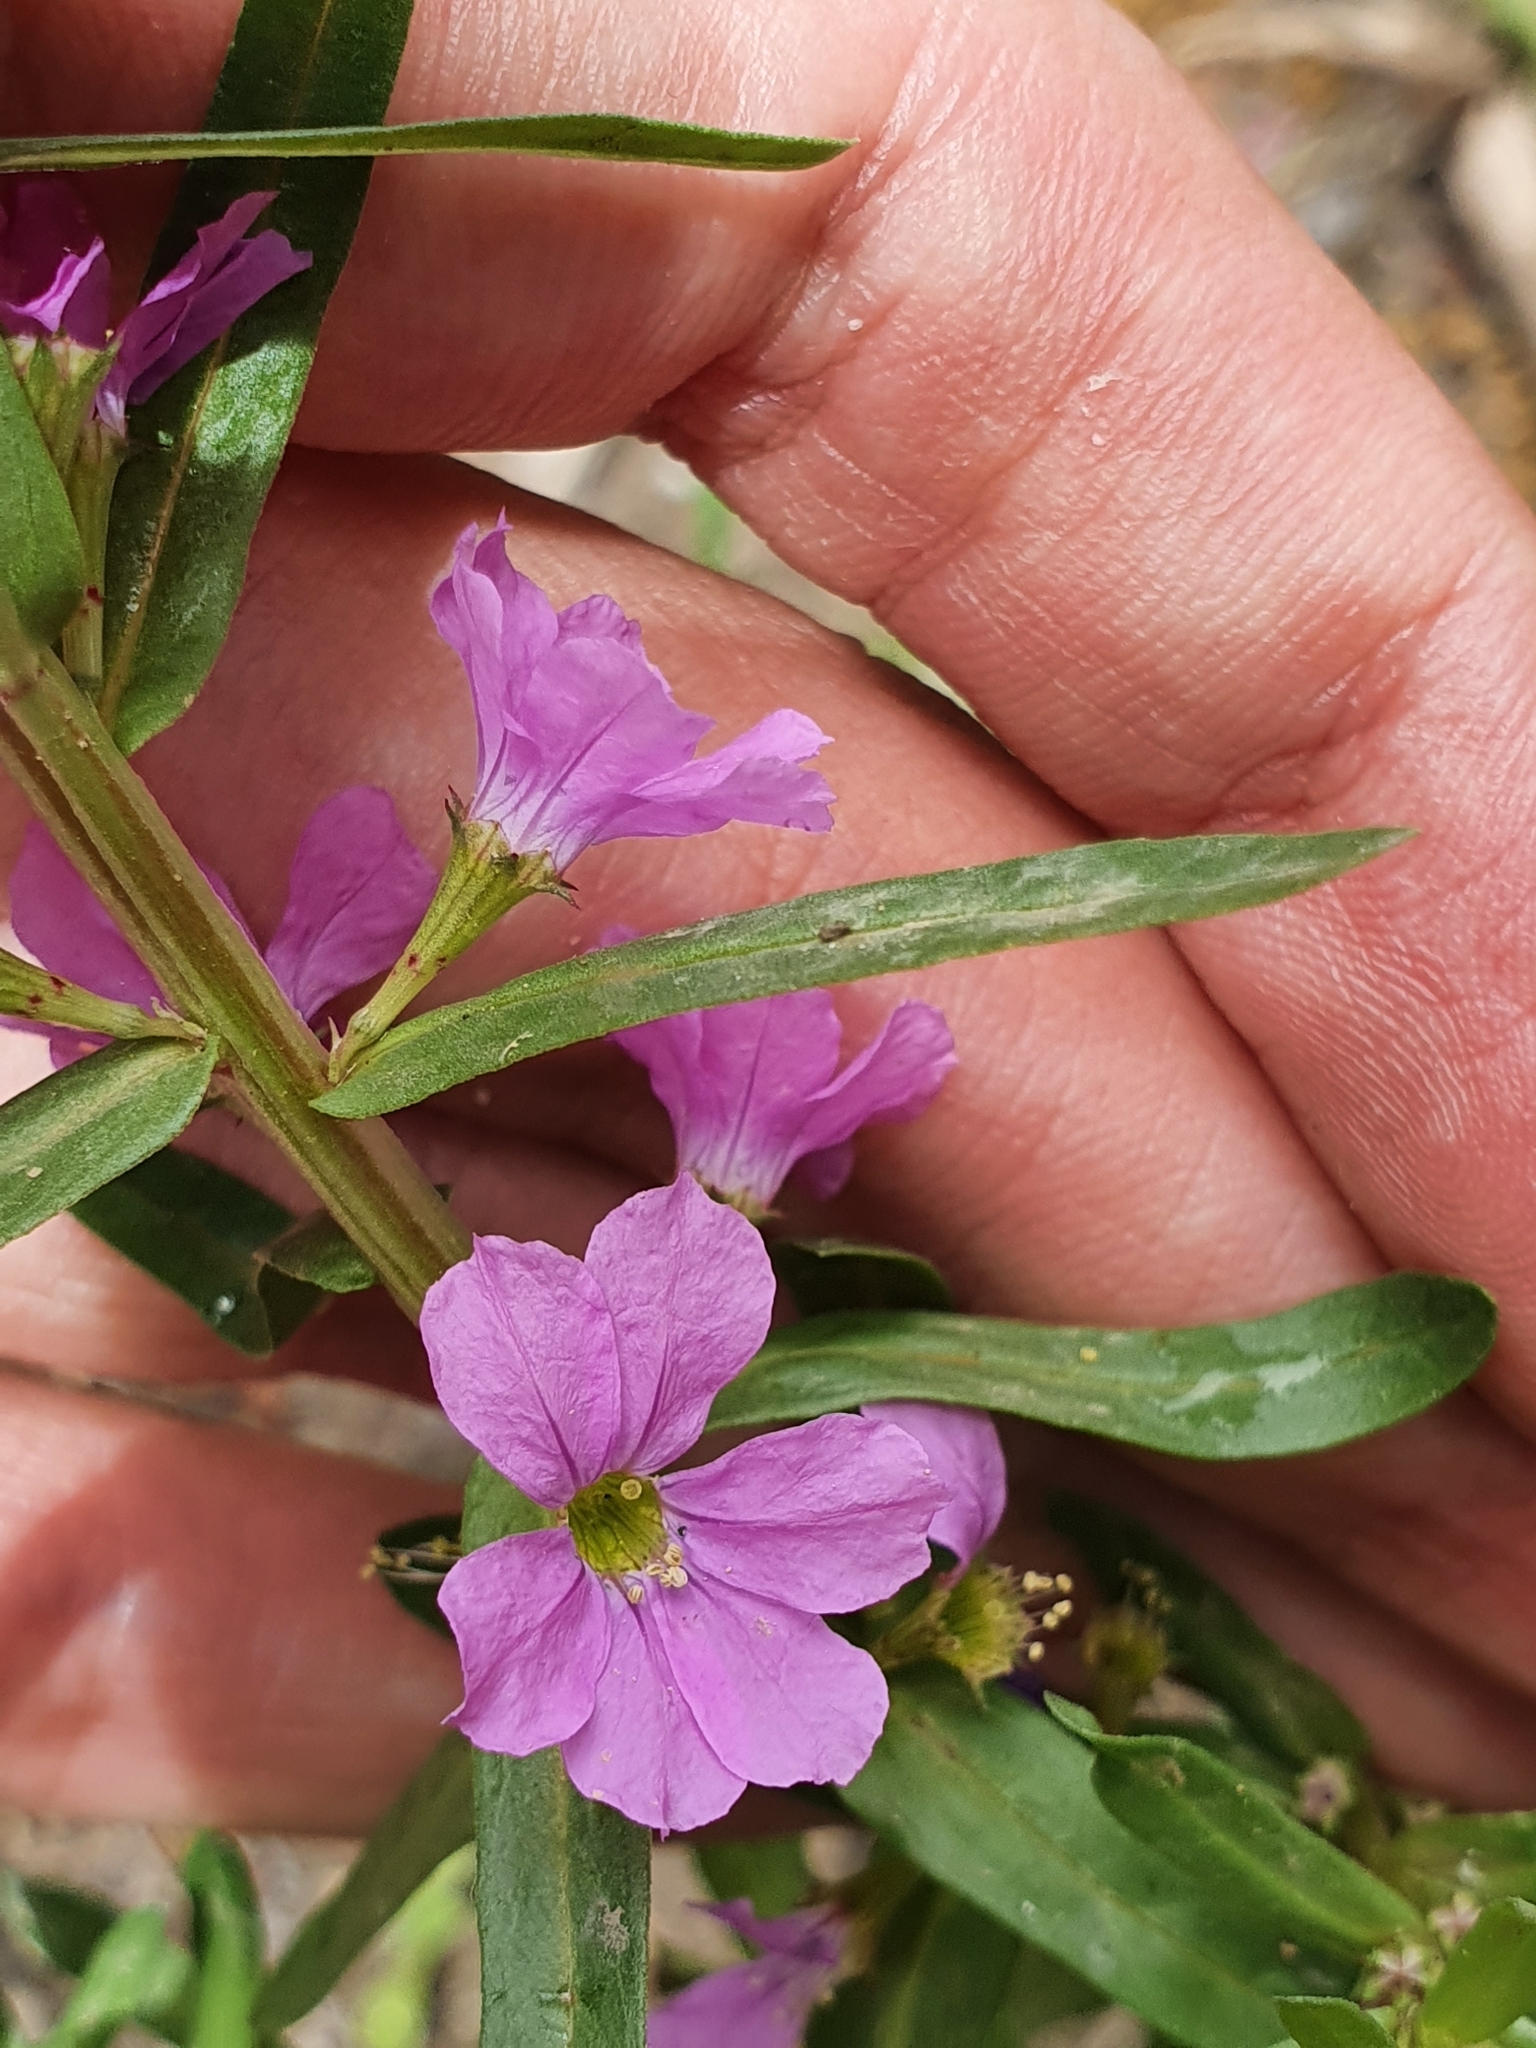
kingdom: Plantae
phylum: Tracheophyta
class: Magnoliopsida
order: Myrtales
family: Lythraceae
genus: Lythrum
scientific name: Lythrum junceum
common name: False grass-poly
